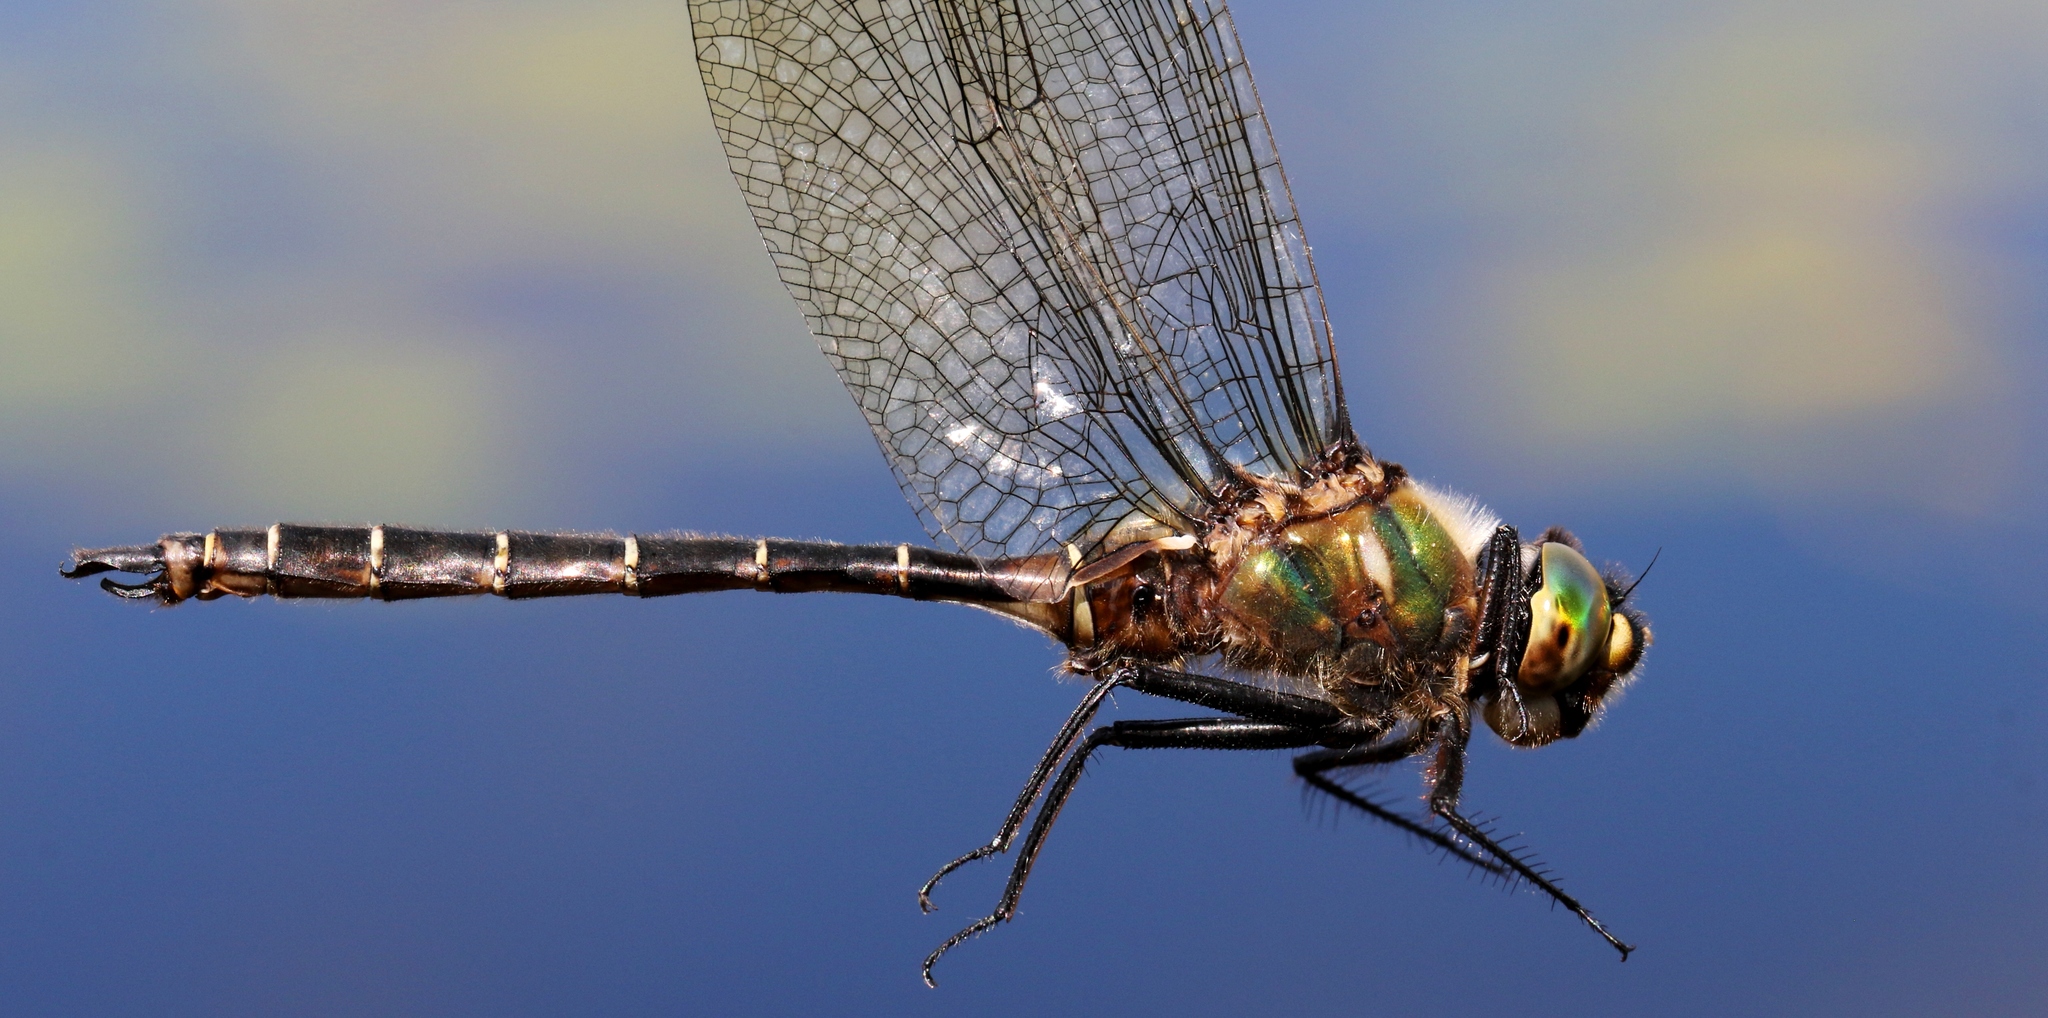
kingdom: Animalia
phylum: Arthropoda
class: Insecta
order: Odonata
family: Corduliidae
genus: Somatochlora
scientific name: Somatochlora albicincta
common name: Ringed emerald
